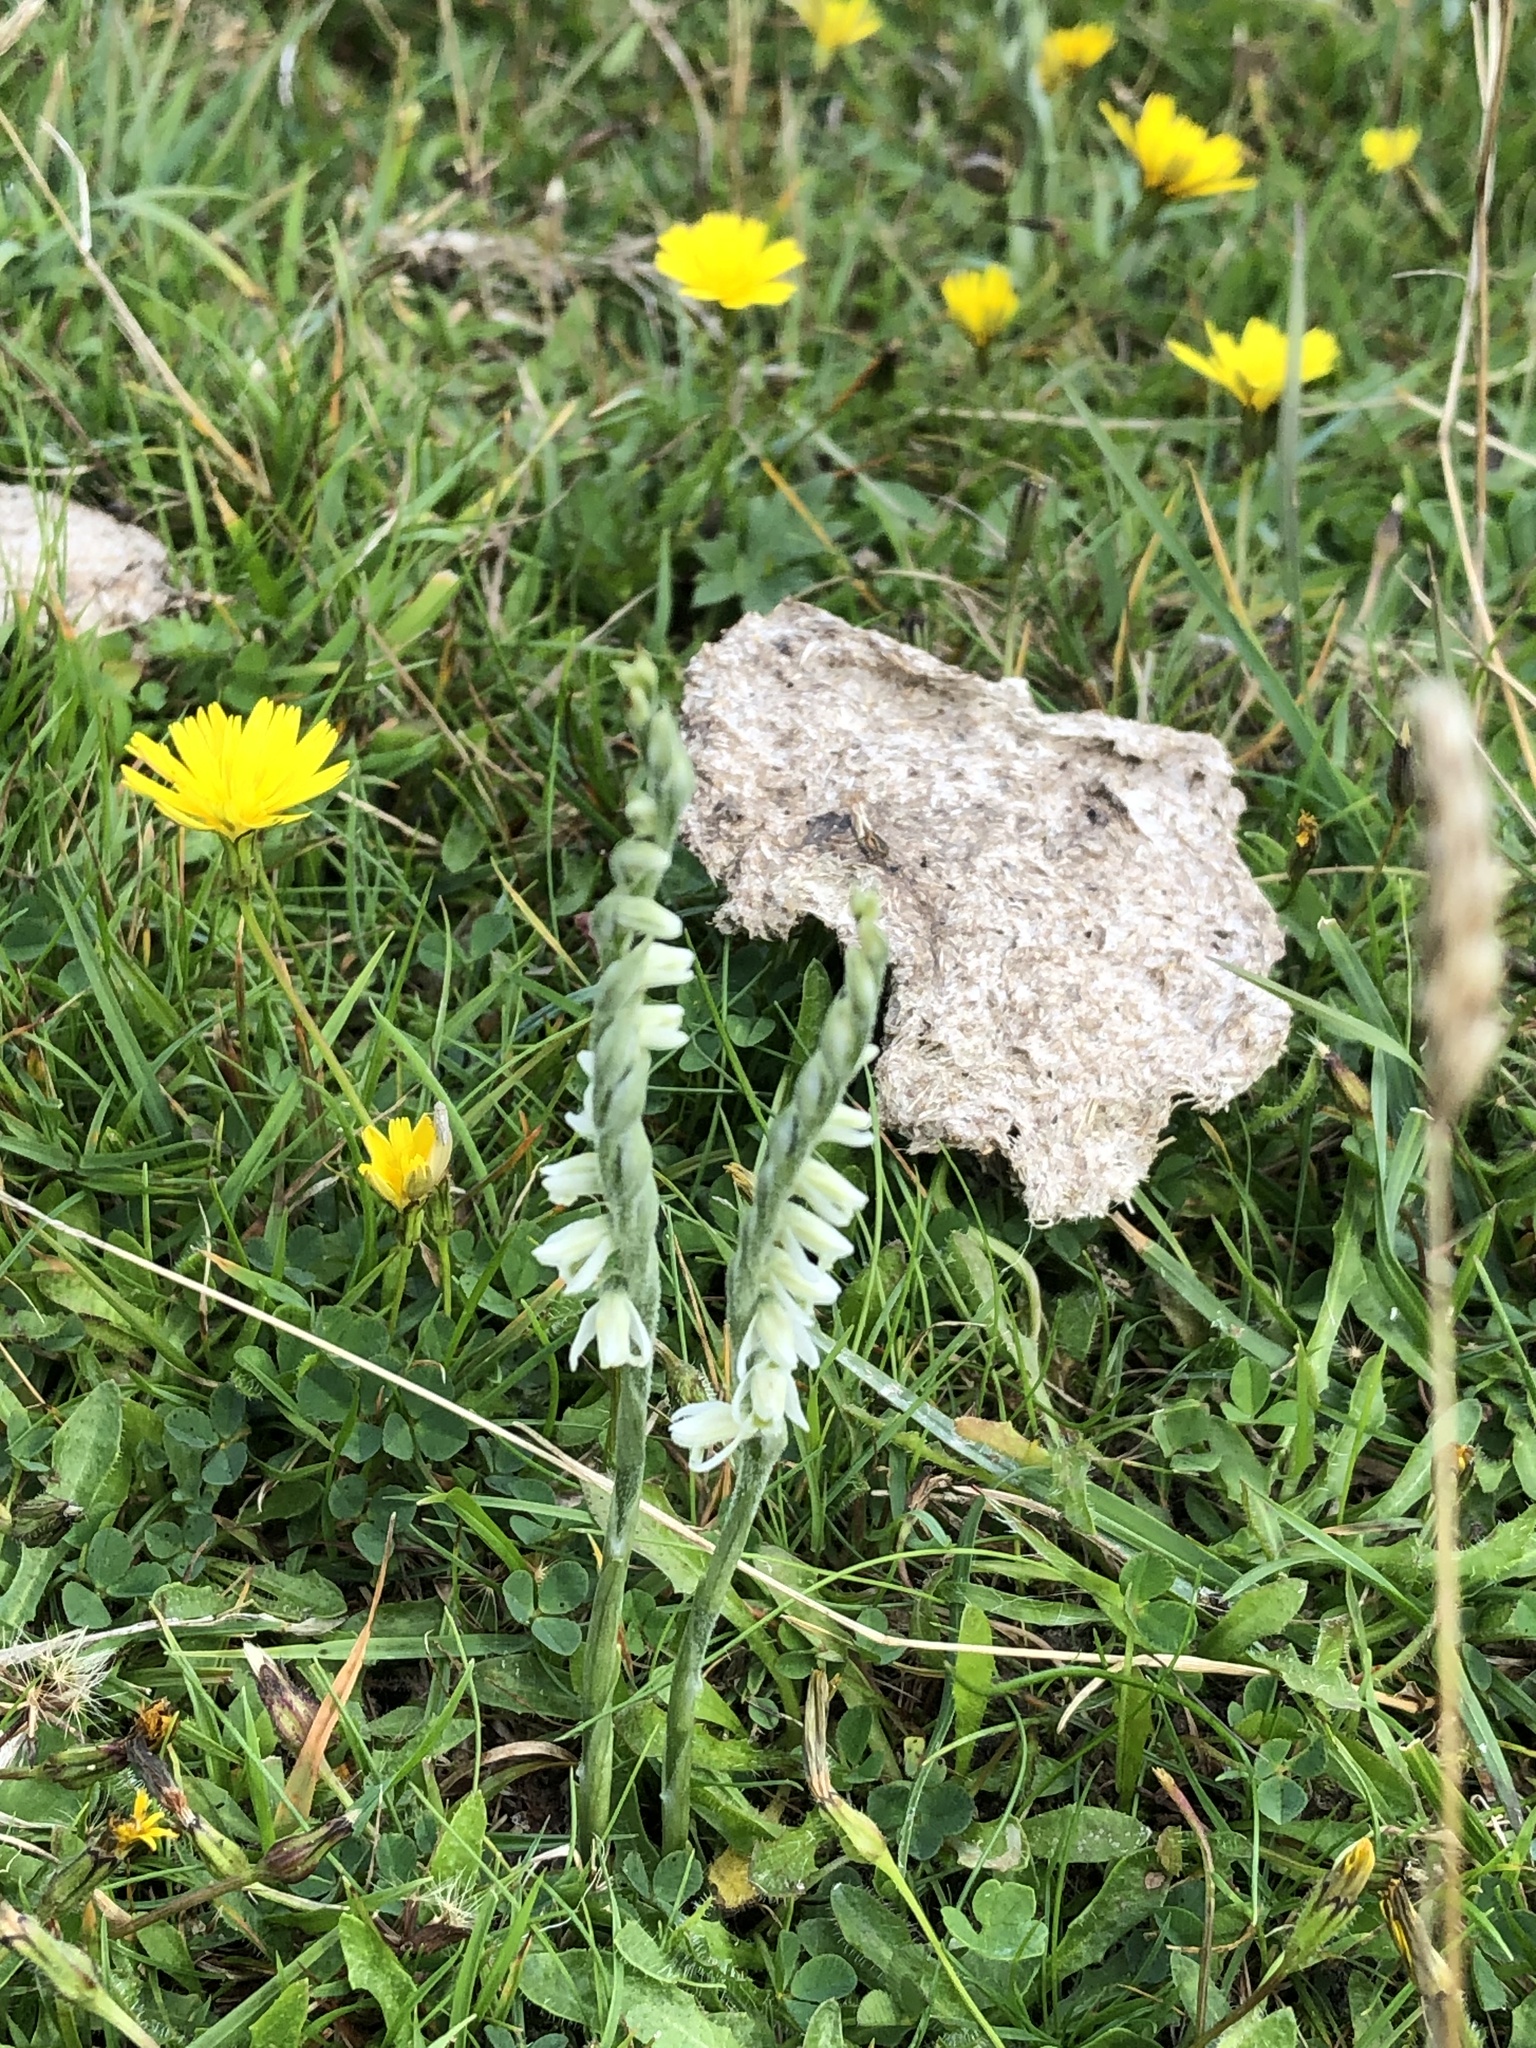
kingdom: Plantae
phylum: Tracheophyta
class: Liliopsida
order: Asparagales
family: Orchidaceae
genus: Spiranthes
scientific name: Spiranthes spiralis
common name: Autumn lady's-tresses
